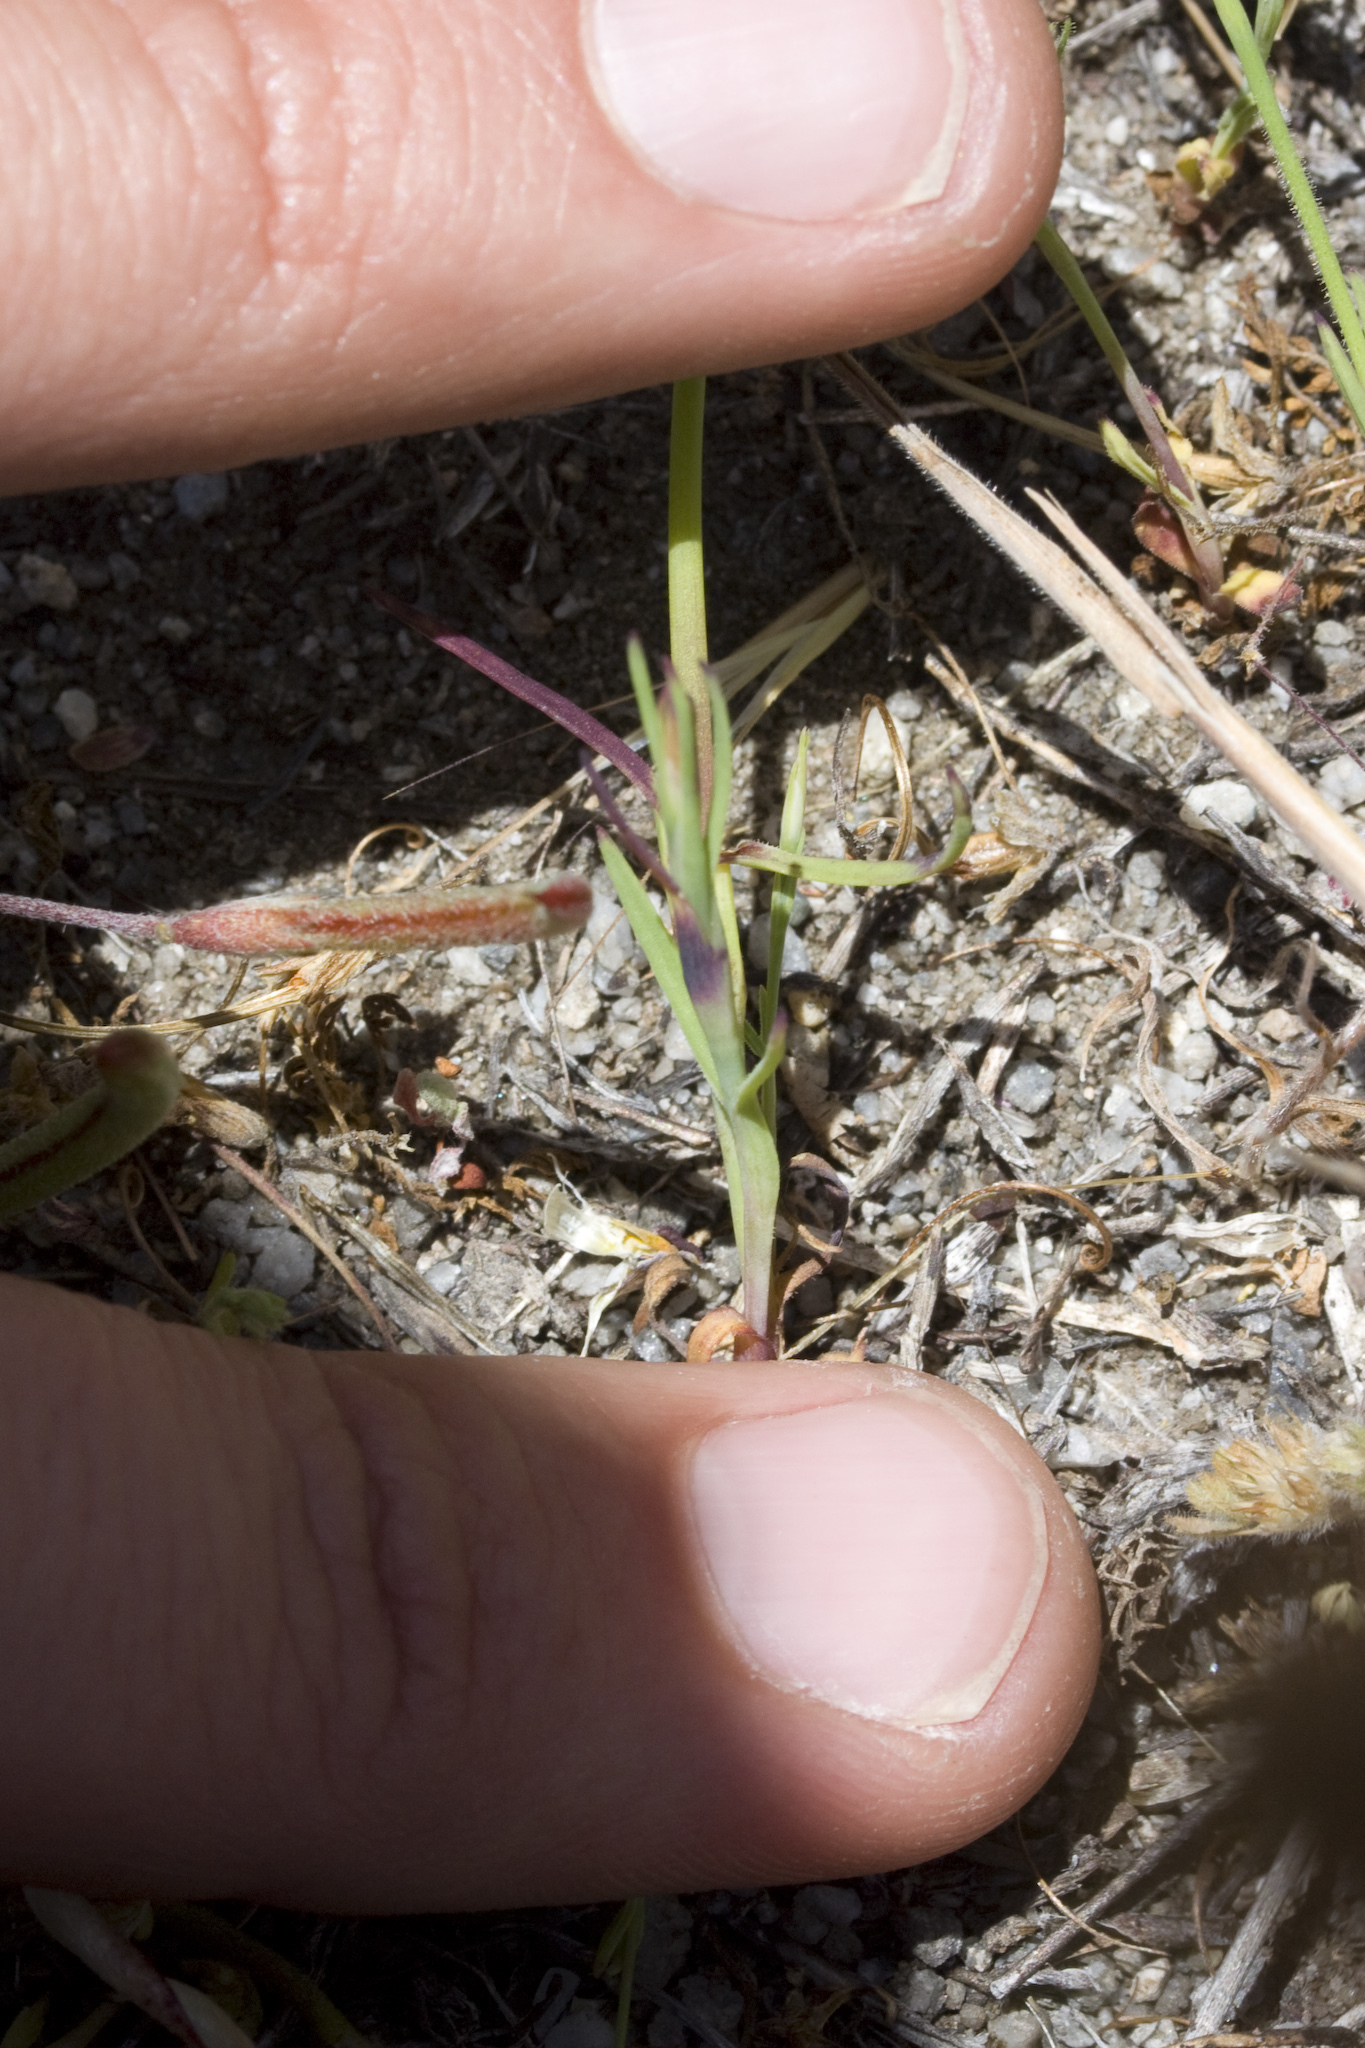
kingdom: Plantae
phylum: Tracheophyta
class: Magnoliopsida
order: Caryophyllales
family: Caryophyllaceae
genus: Petrorhagia
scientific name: Petrorhagia dubia
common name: Hairypink
